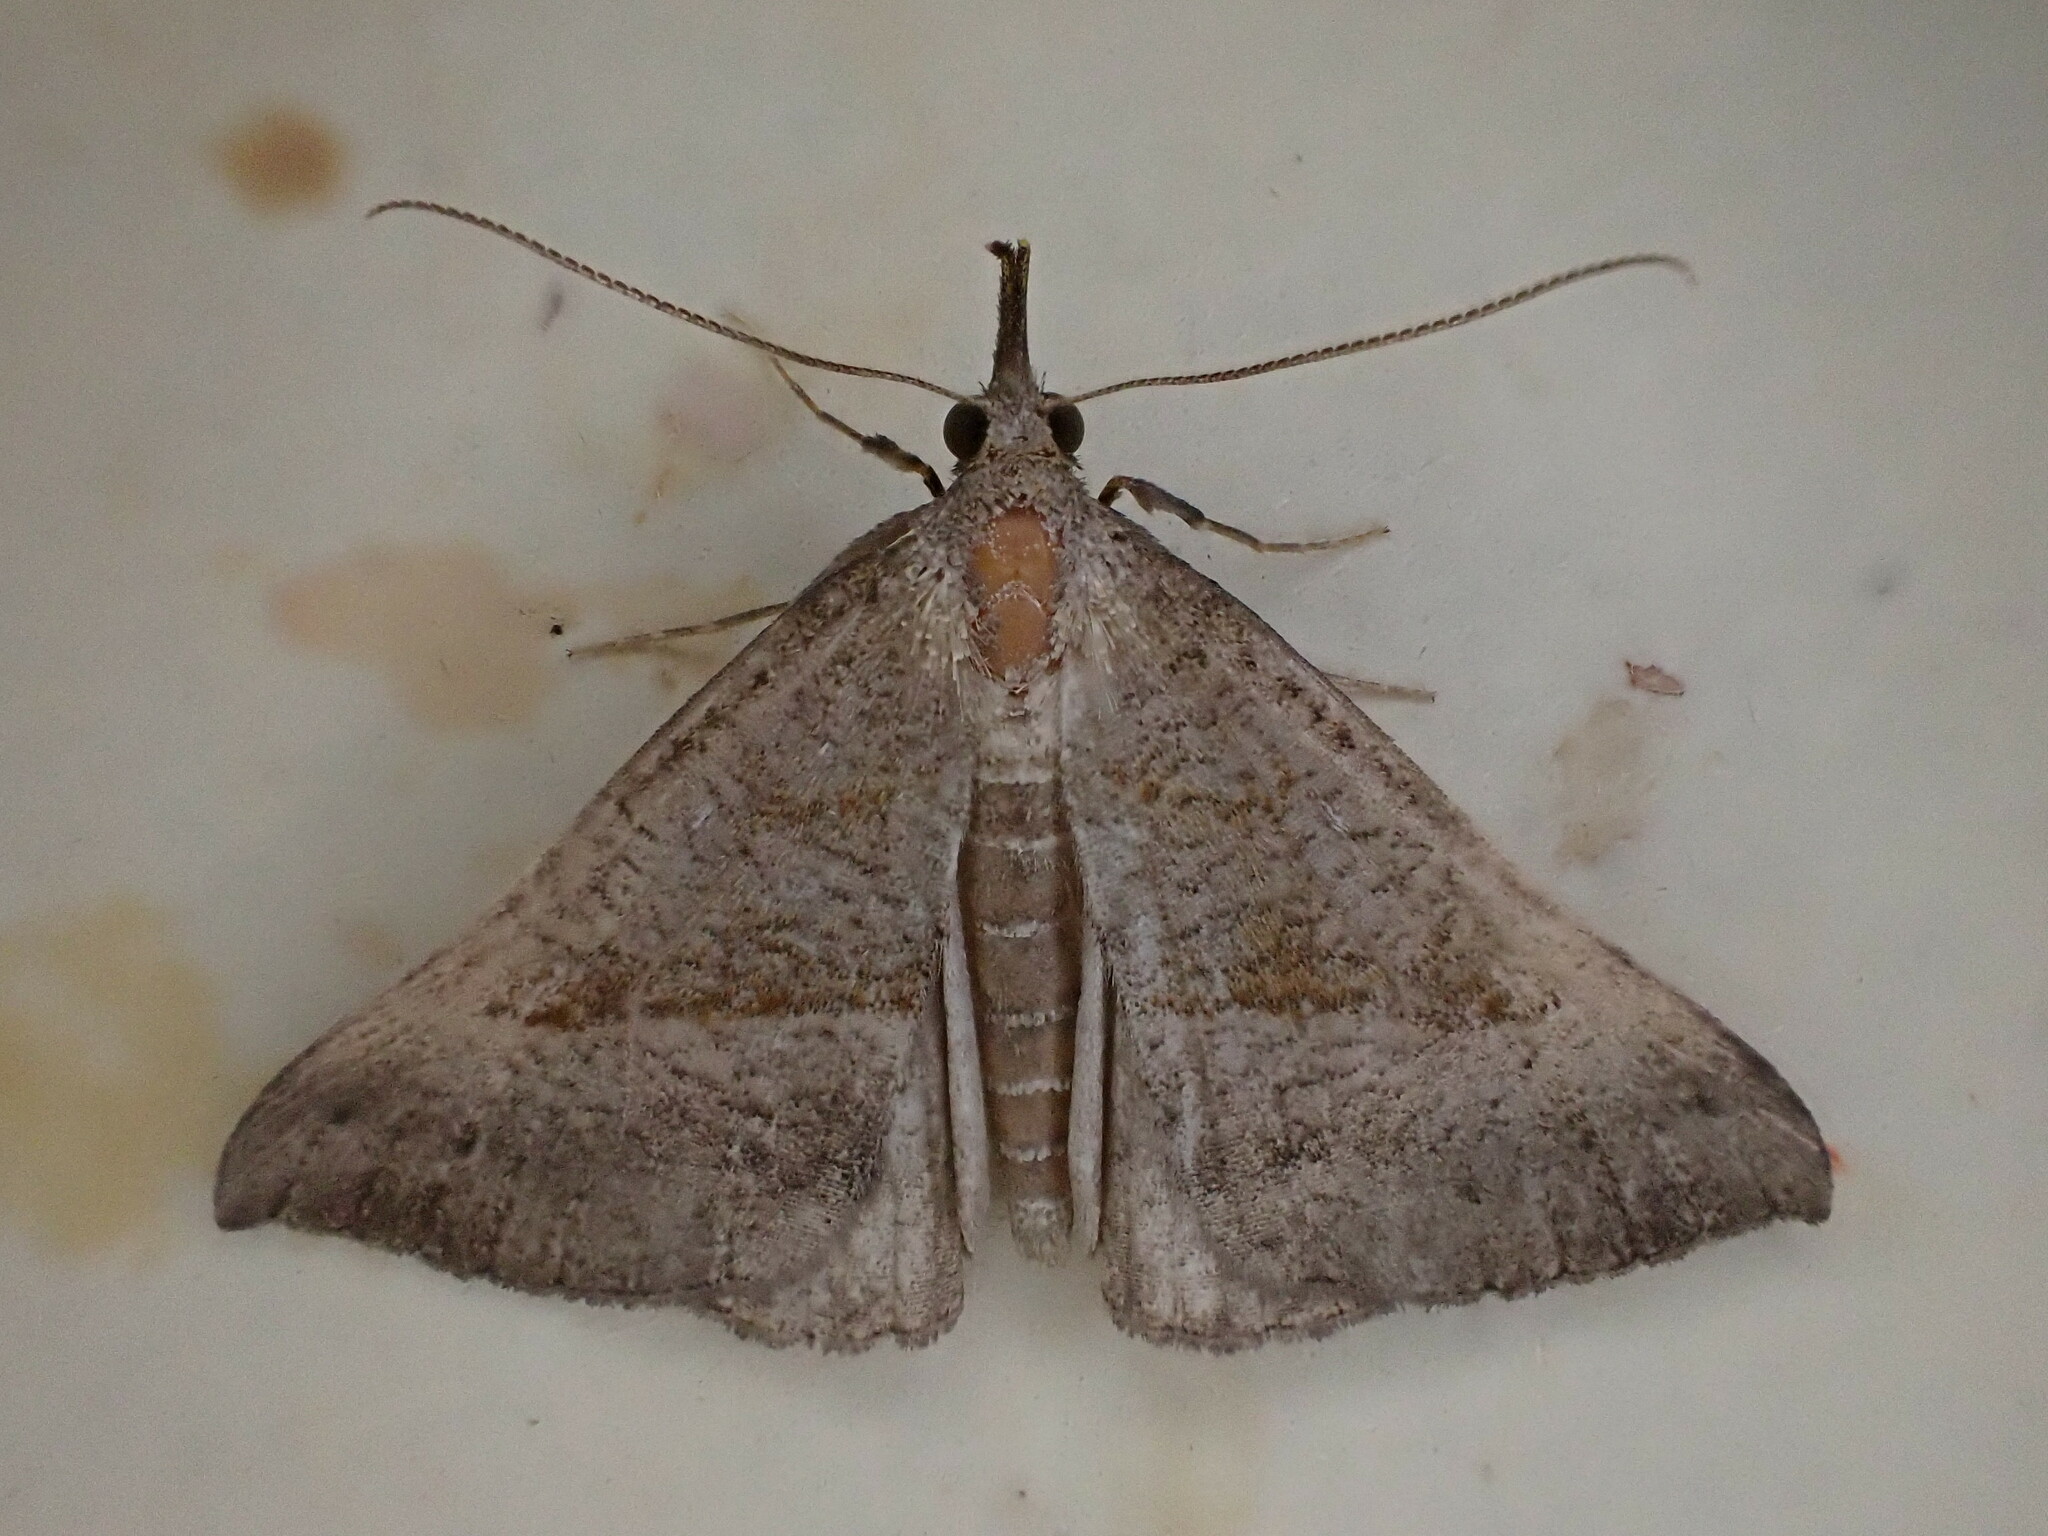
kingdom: Animalia
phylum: Arthropoda
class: Insecta
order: Lepidoptera
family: Erebidae
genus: Hypena
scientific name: Hypena proboscidalis
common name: Snout
